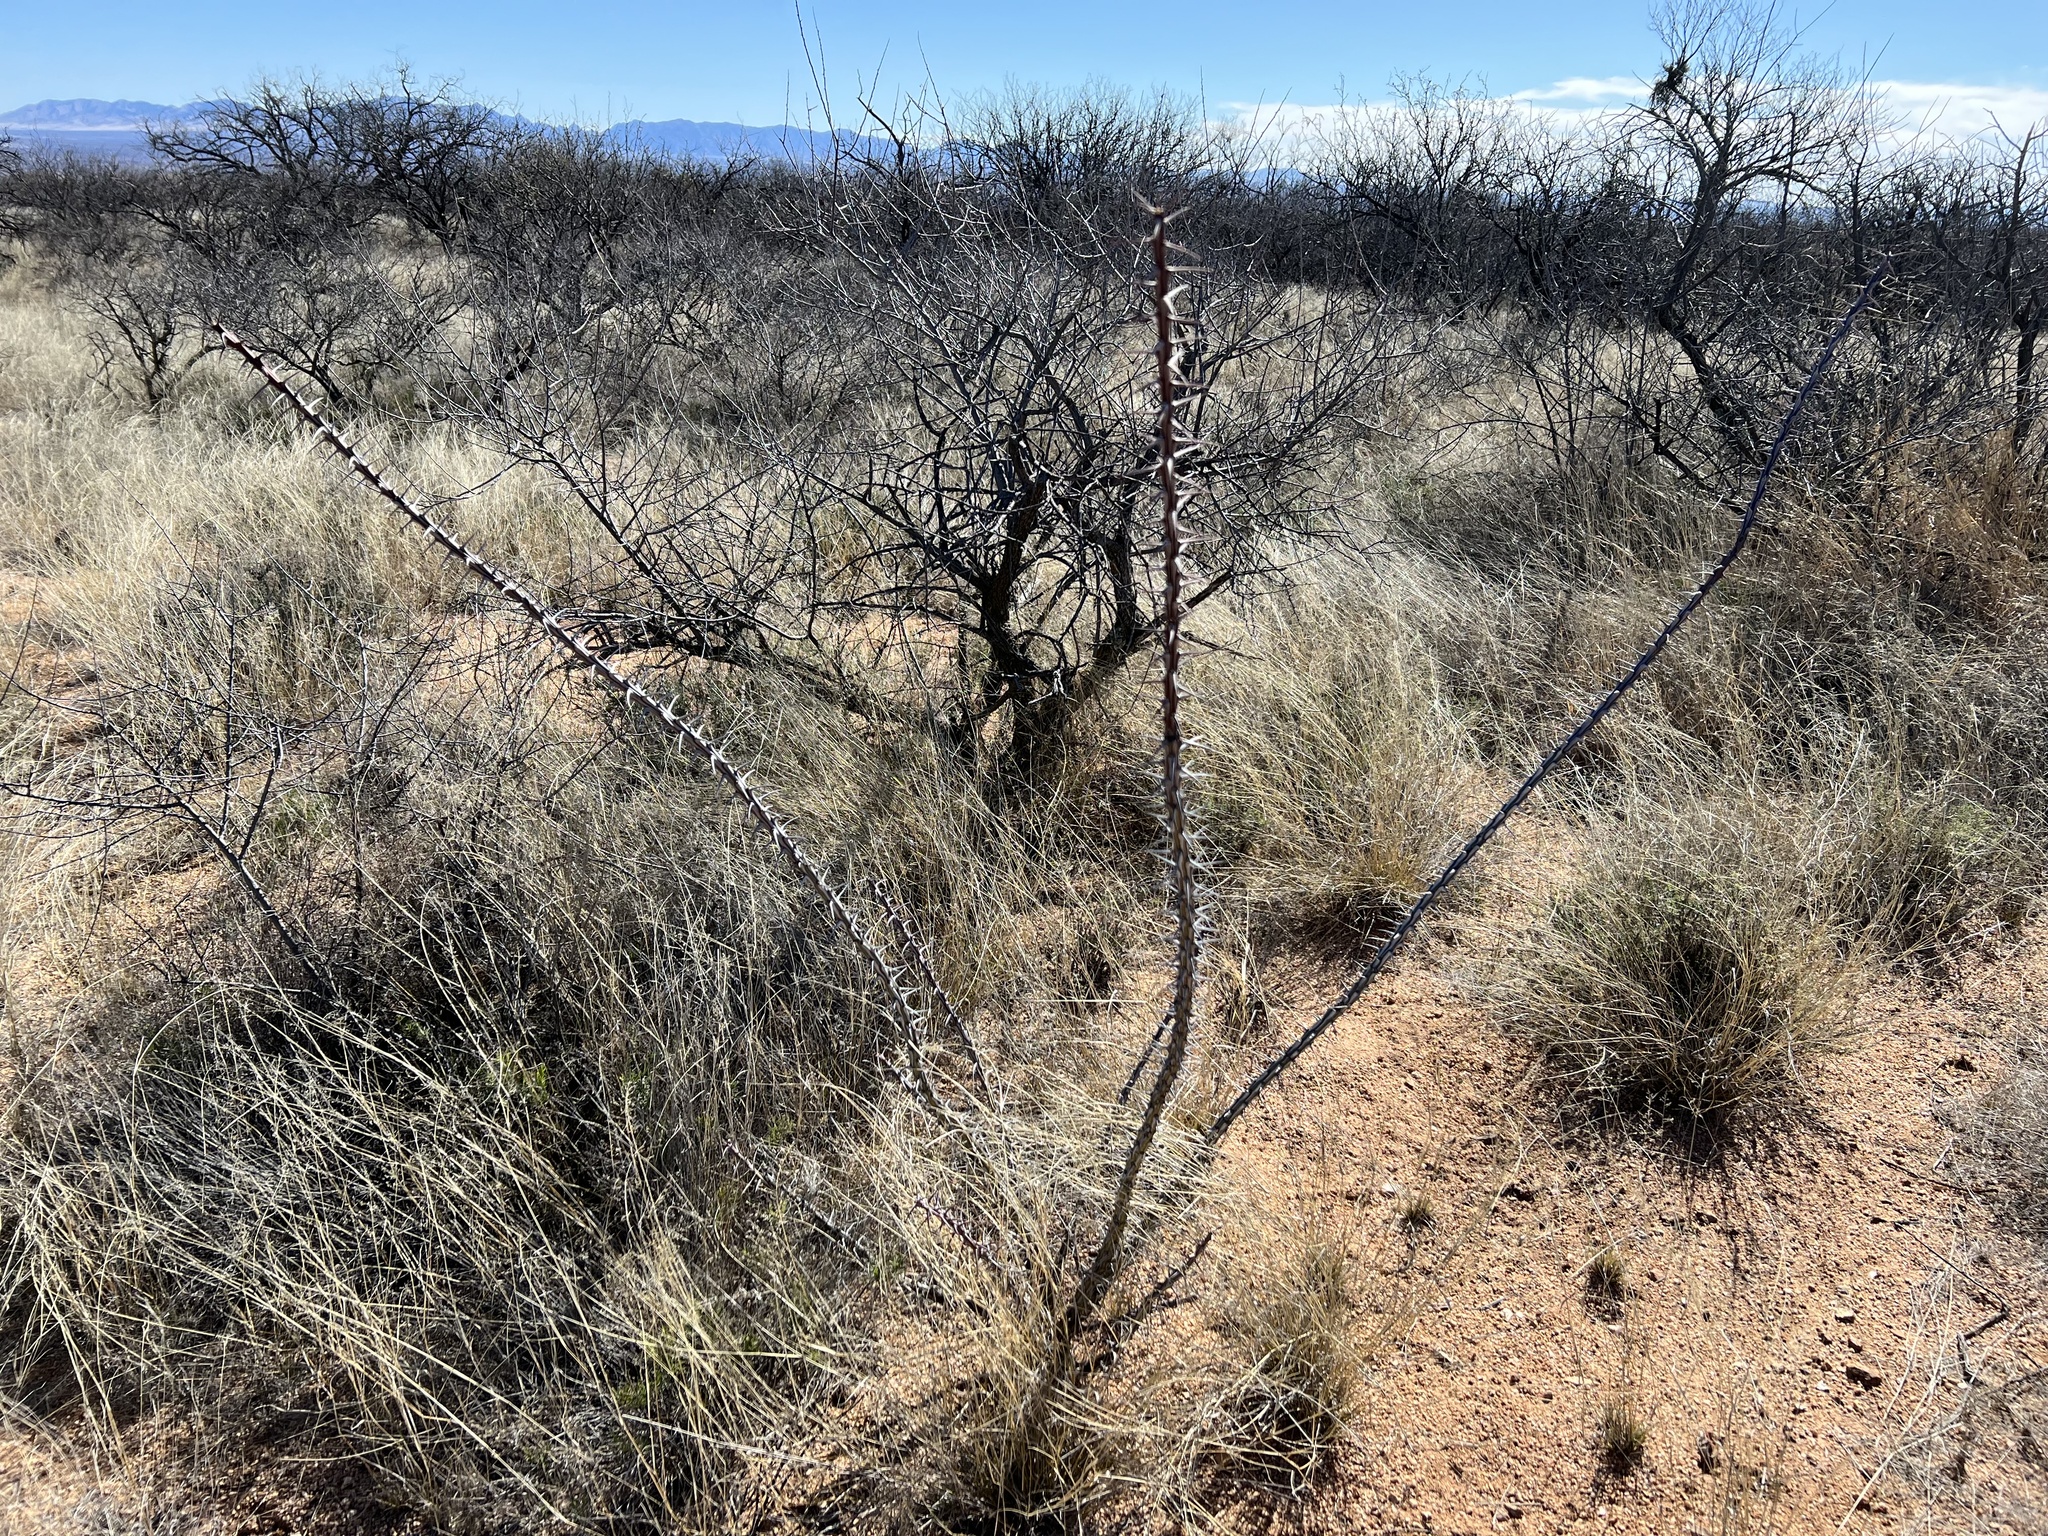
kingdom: Plantae
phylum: Tracheophyta
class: Magnoliopsida
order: Ericales
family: Fouquieriaceae
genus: Fouquieria
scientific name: Fouquieria splendens
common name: Vine-cactus
